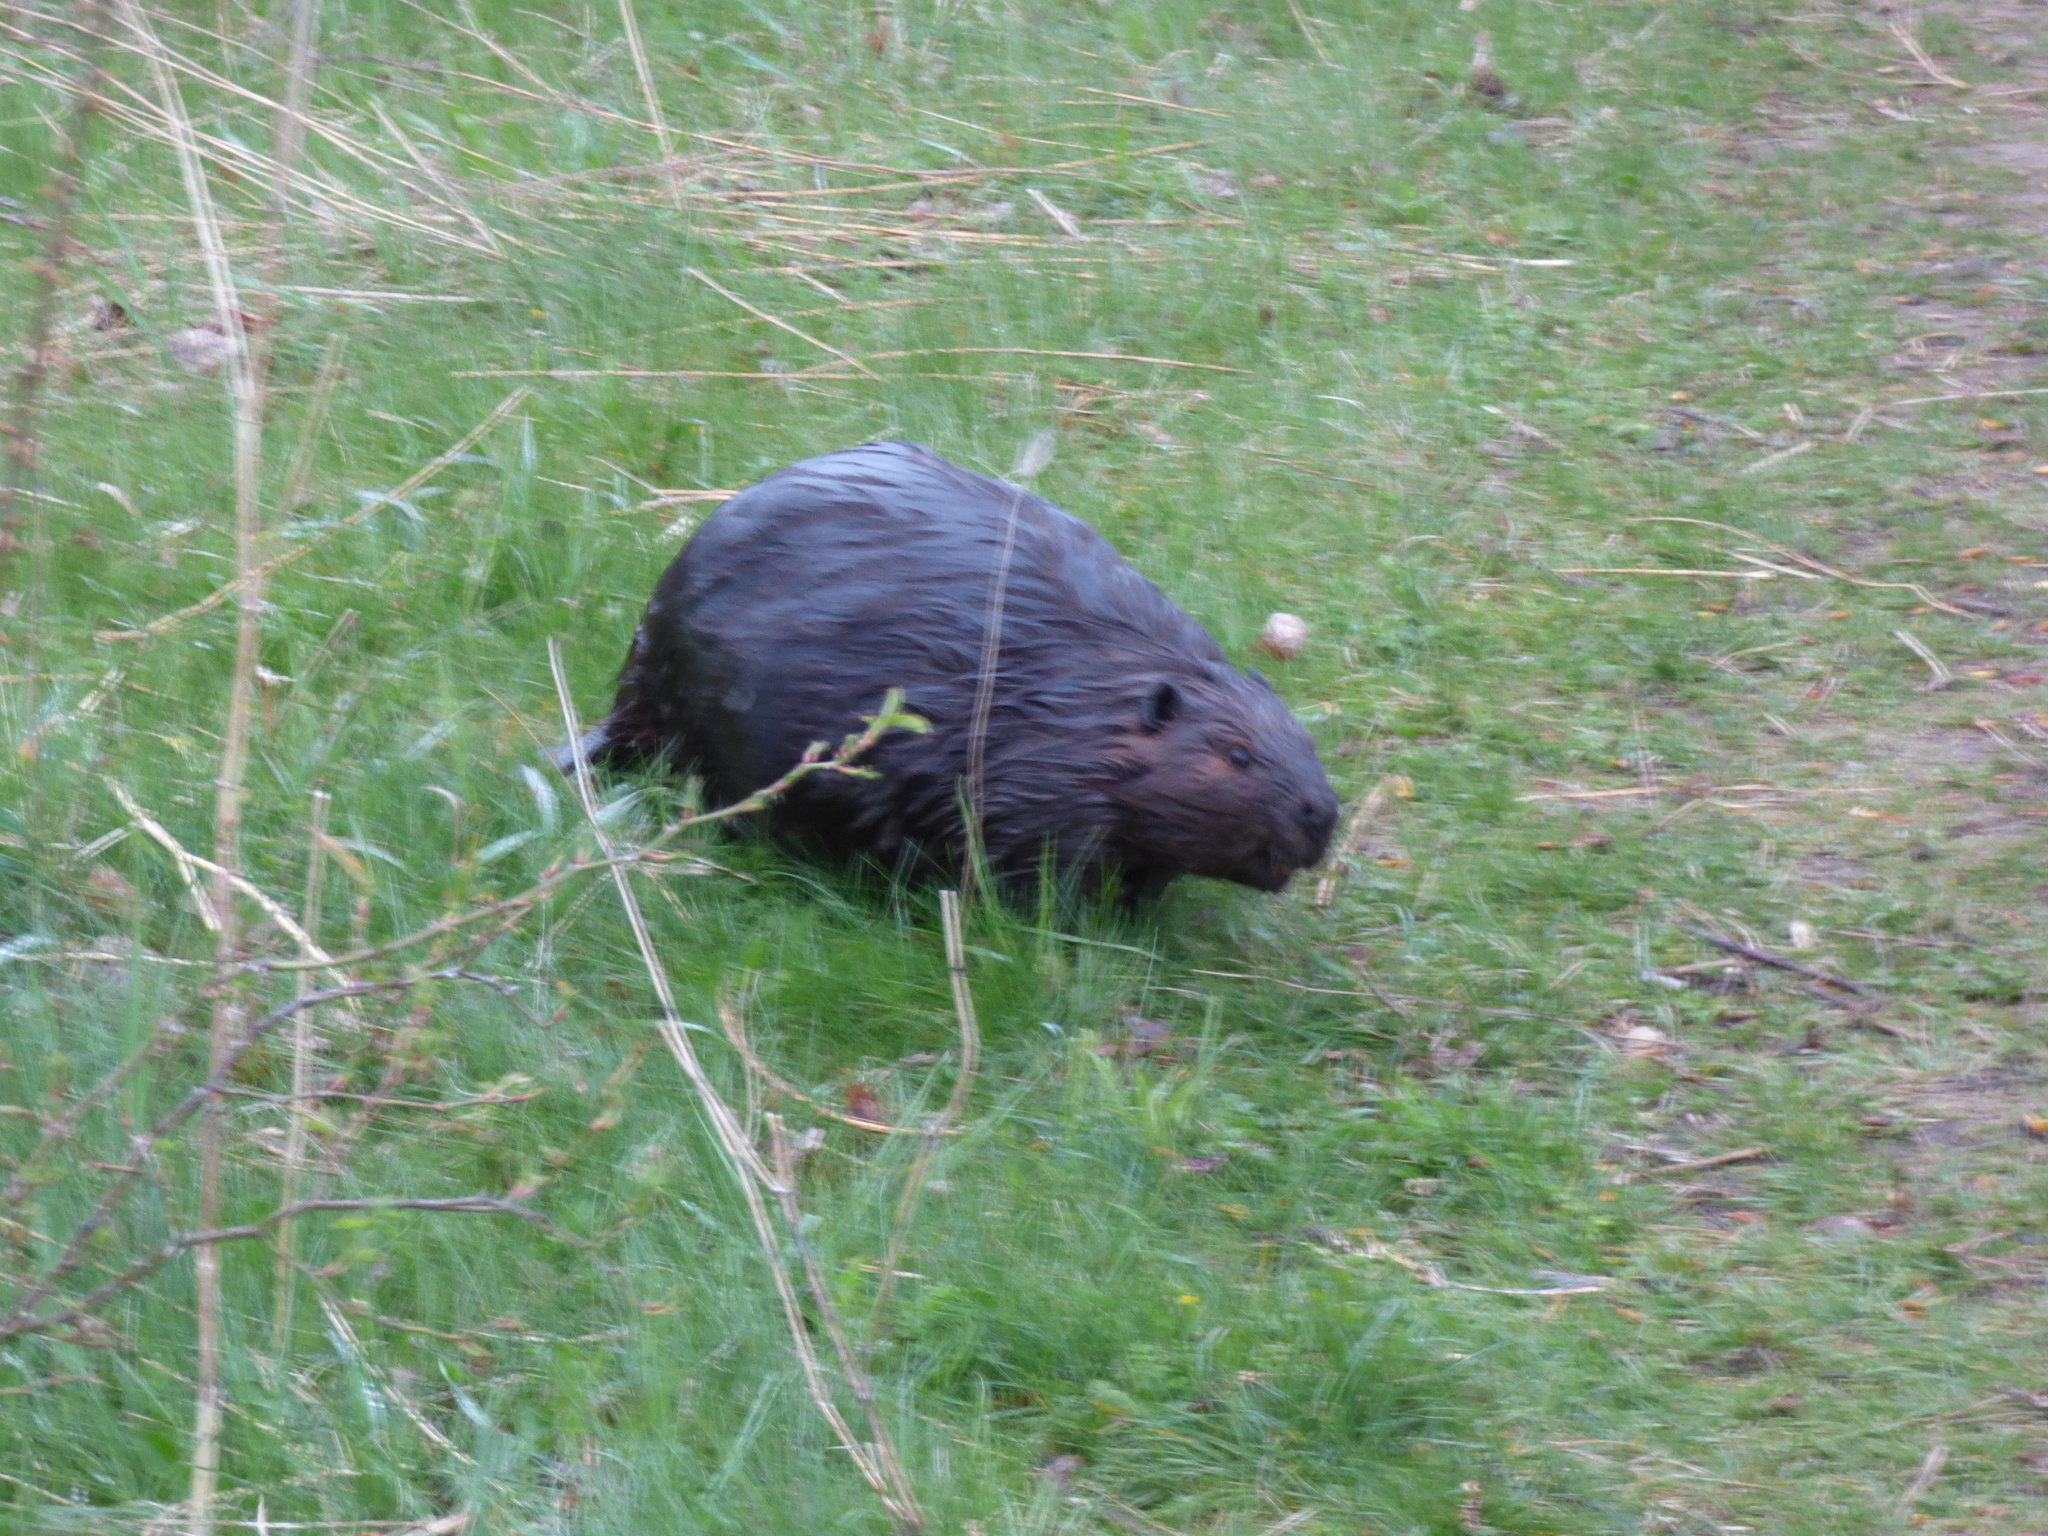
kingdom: Animalia
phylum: Chordata
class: Mammalia
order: Rodentia
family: Castoridae
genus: Castor
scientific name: Castor canadensis
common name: American beaver
